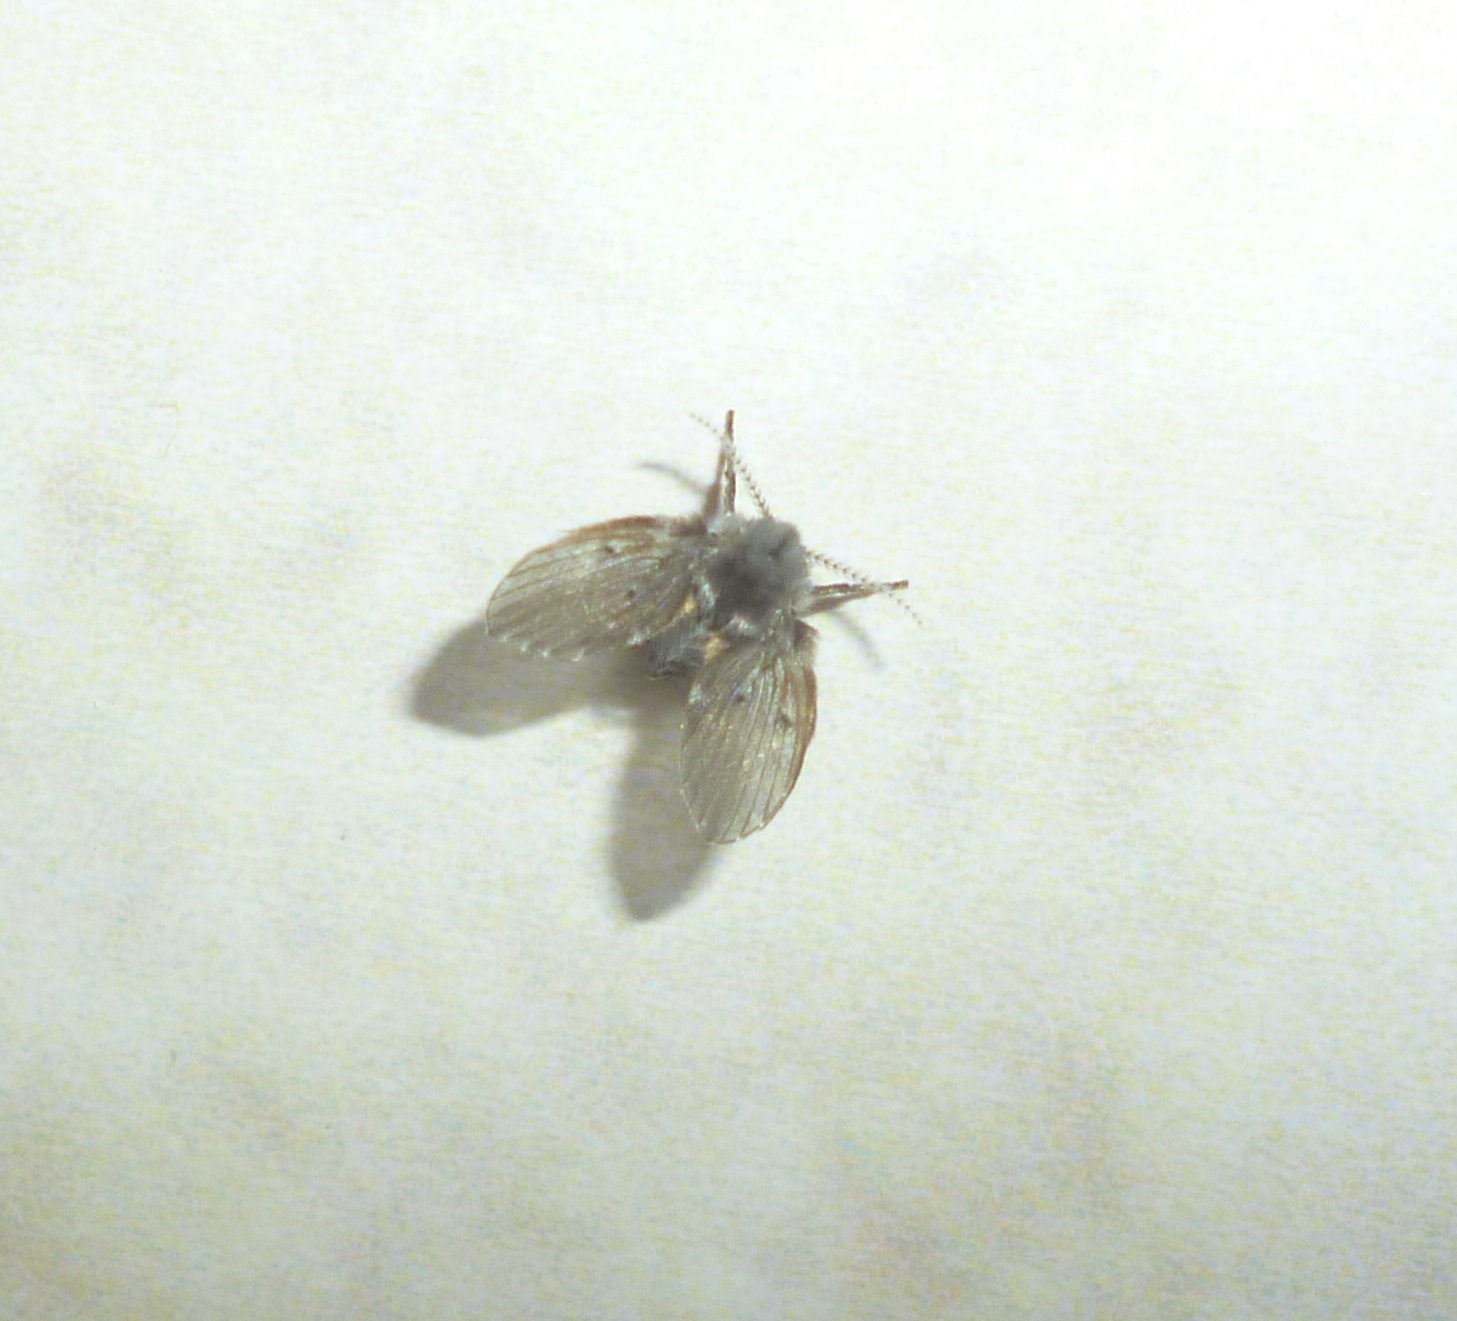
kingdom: Animalia
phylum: Arthropoda
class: Insecta
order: Diptera
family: Psychodidae
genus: Clogmia
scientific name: Clogmia albipunctatus
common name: White-spotted moth fly
